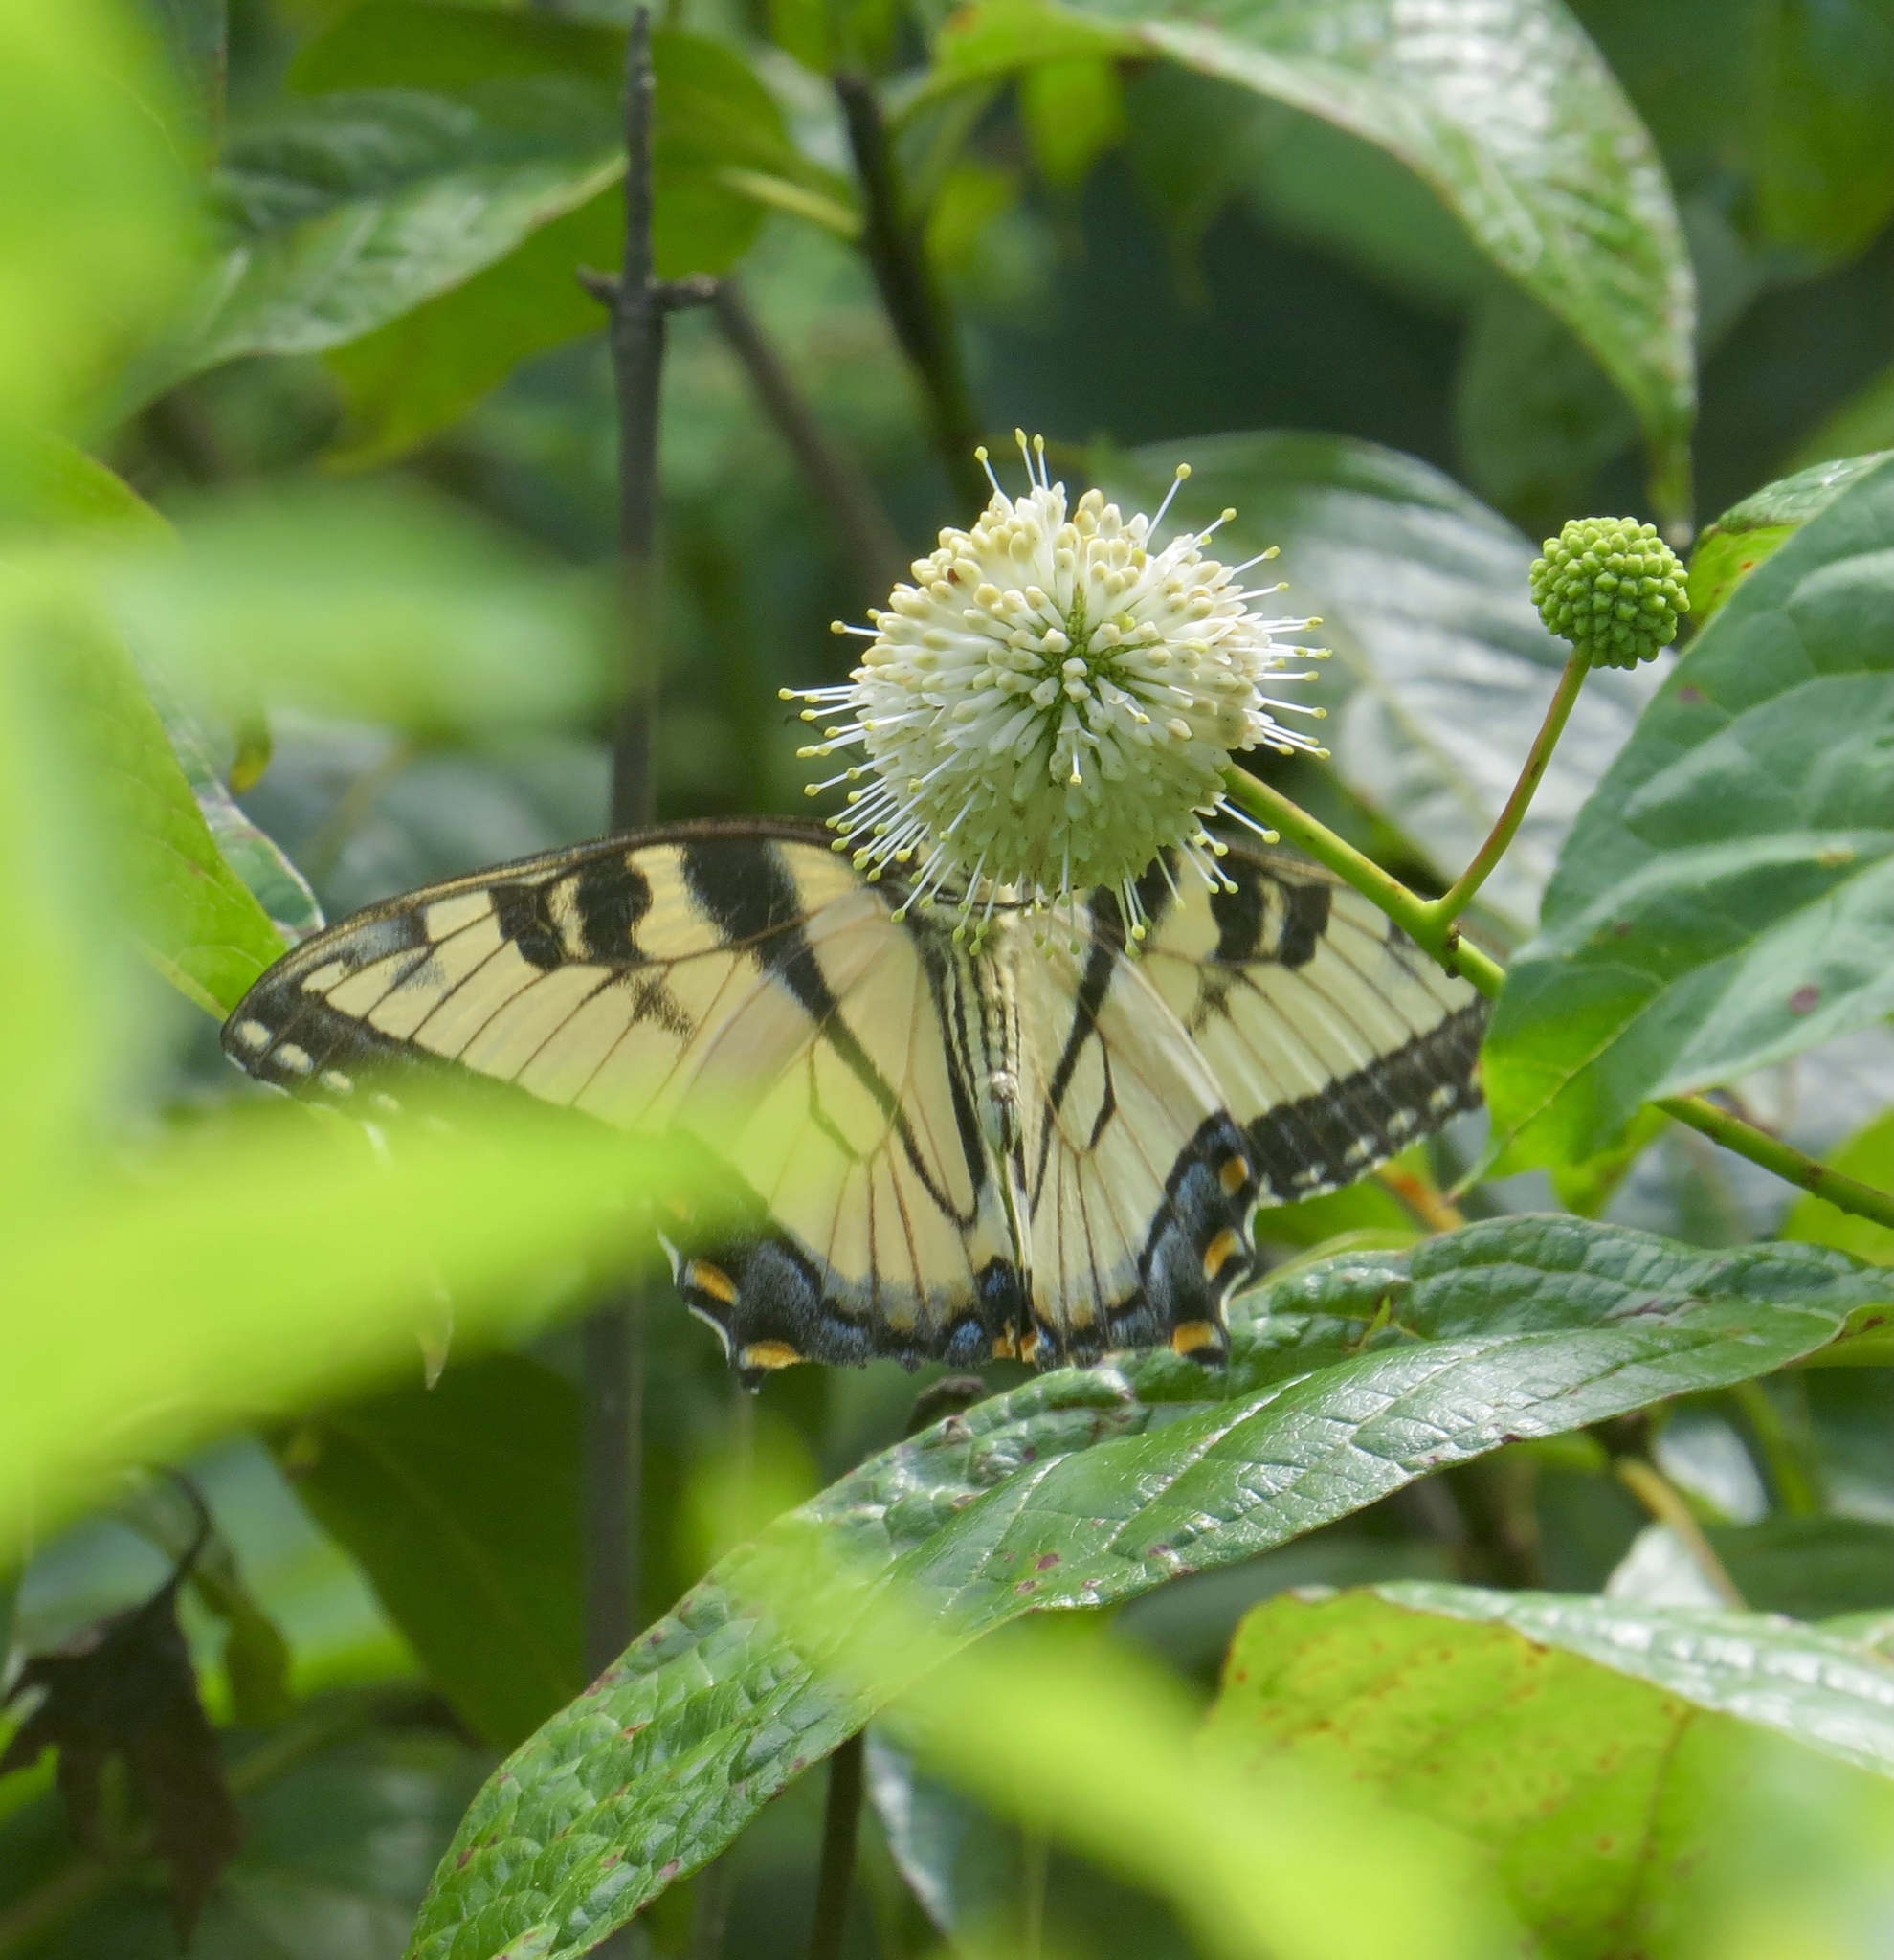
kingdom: Animalia
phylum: Arthropoda
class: Insecta
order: Lepidoptera
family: Papilionidae
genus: Papilio
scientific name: Papilio glaucus
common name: Tiger swallowtail
